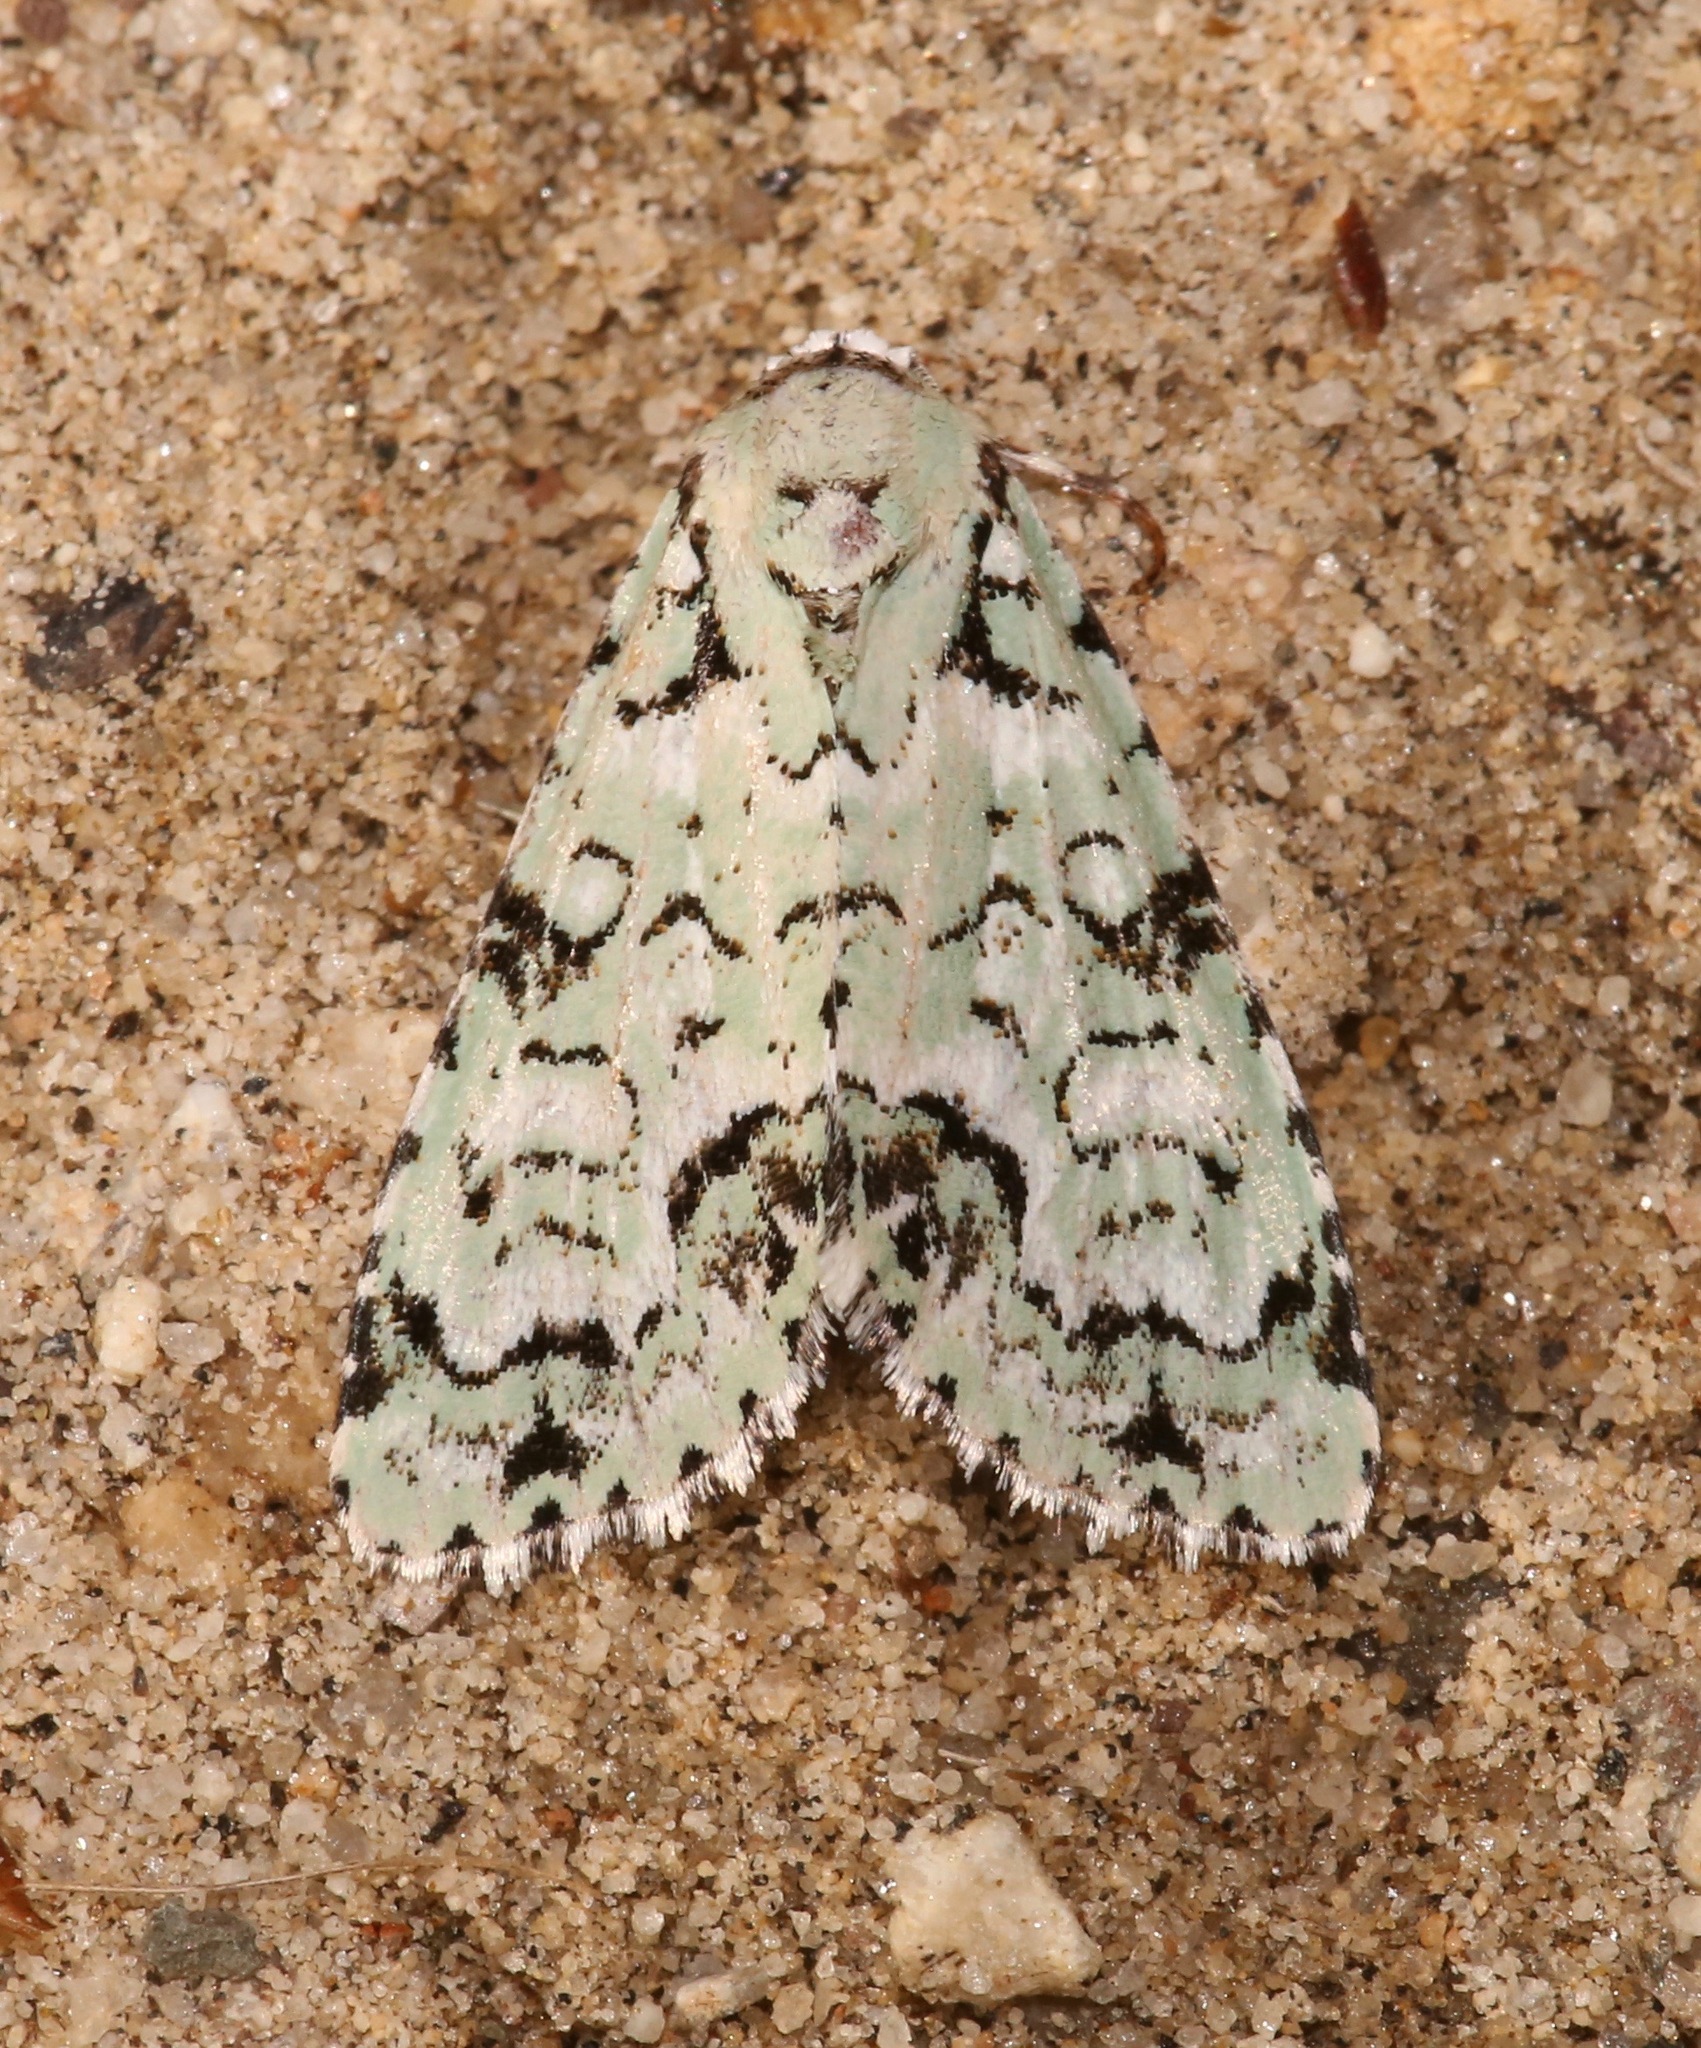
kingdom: Animalia
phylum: Arthropoda
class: Insecta
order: Lepidoptera
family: Noctuidae
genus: Chloronycta
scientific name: Chloronycta tybo
